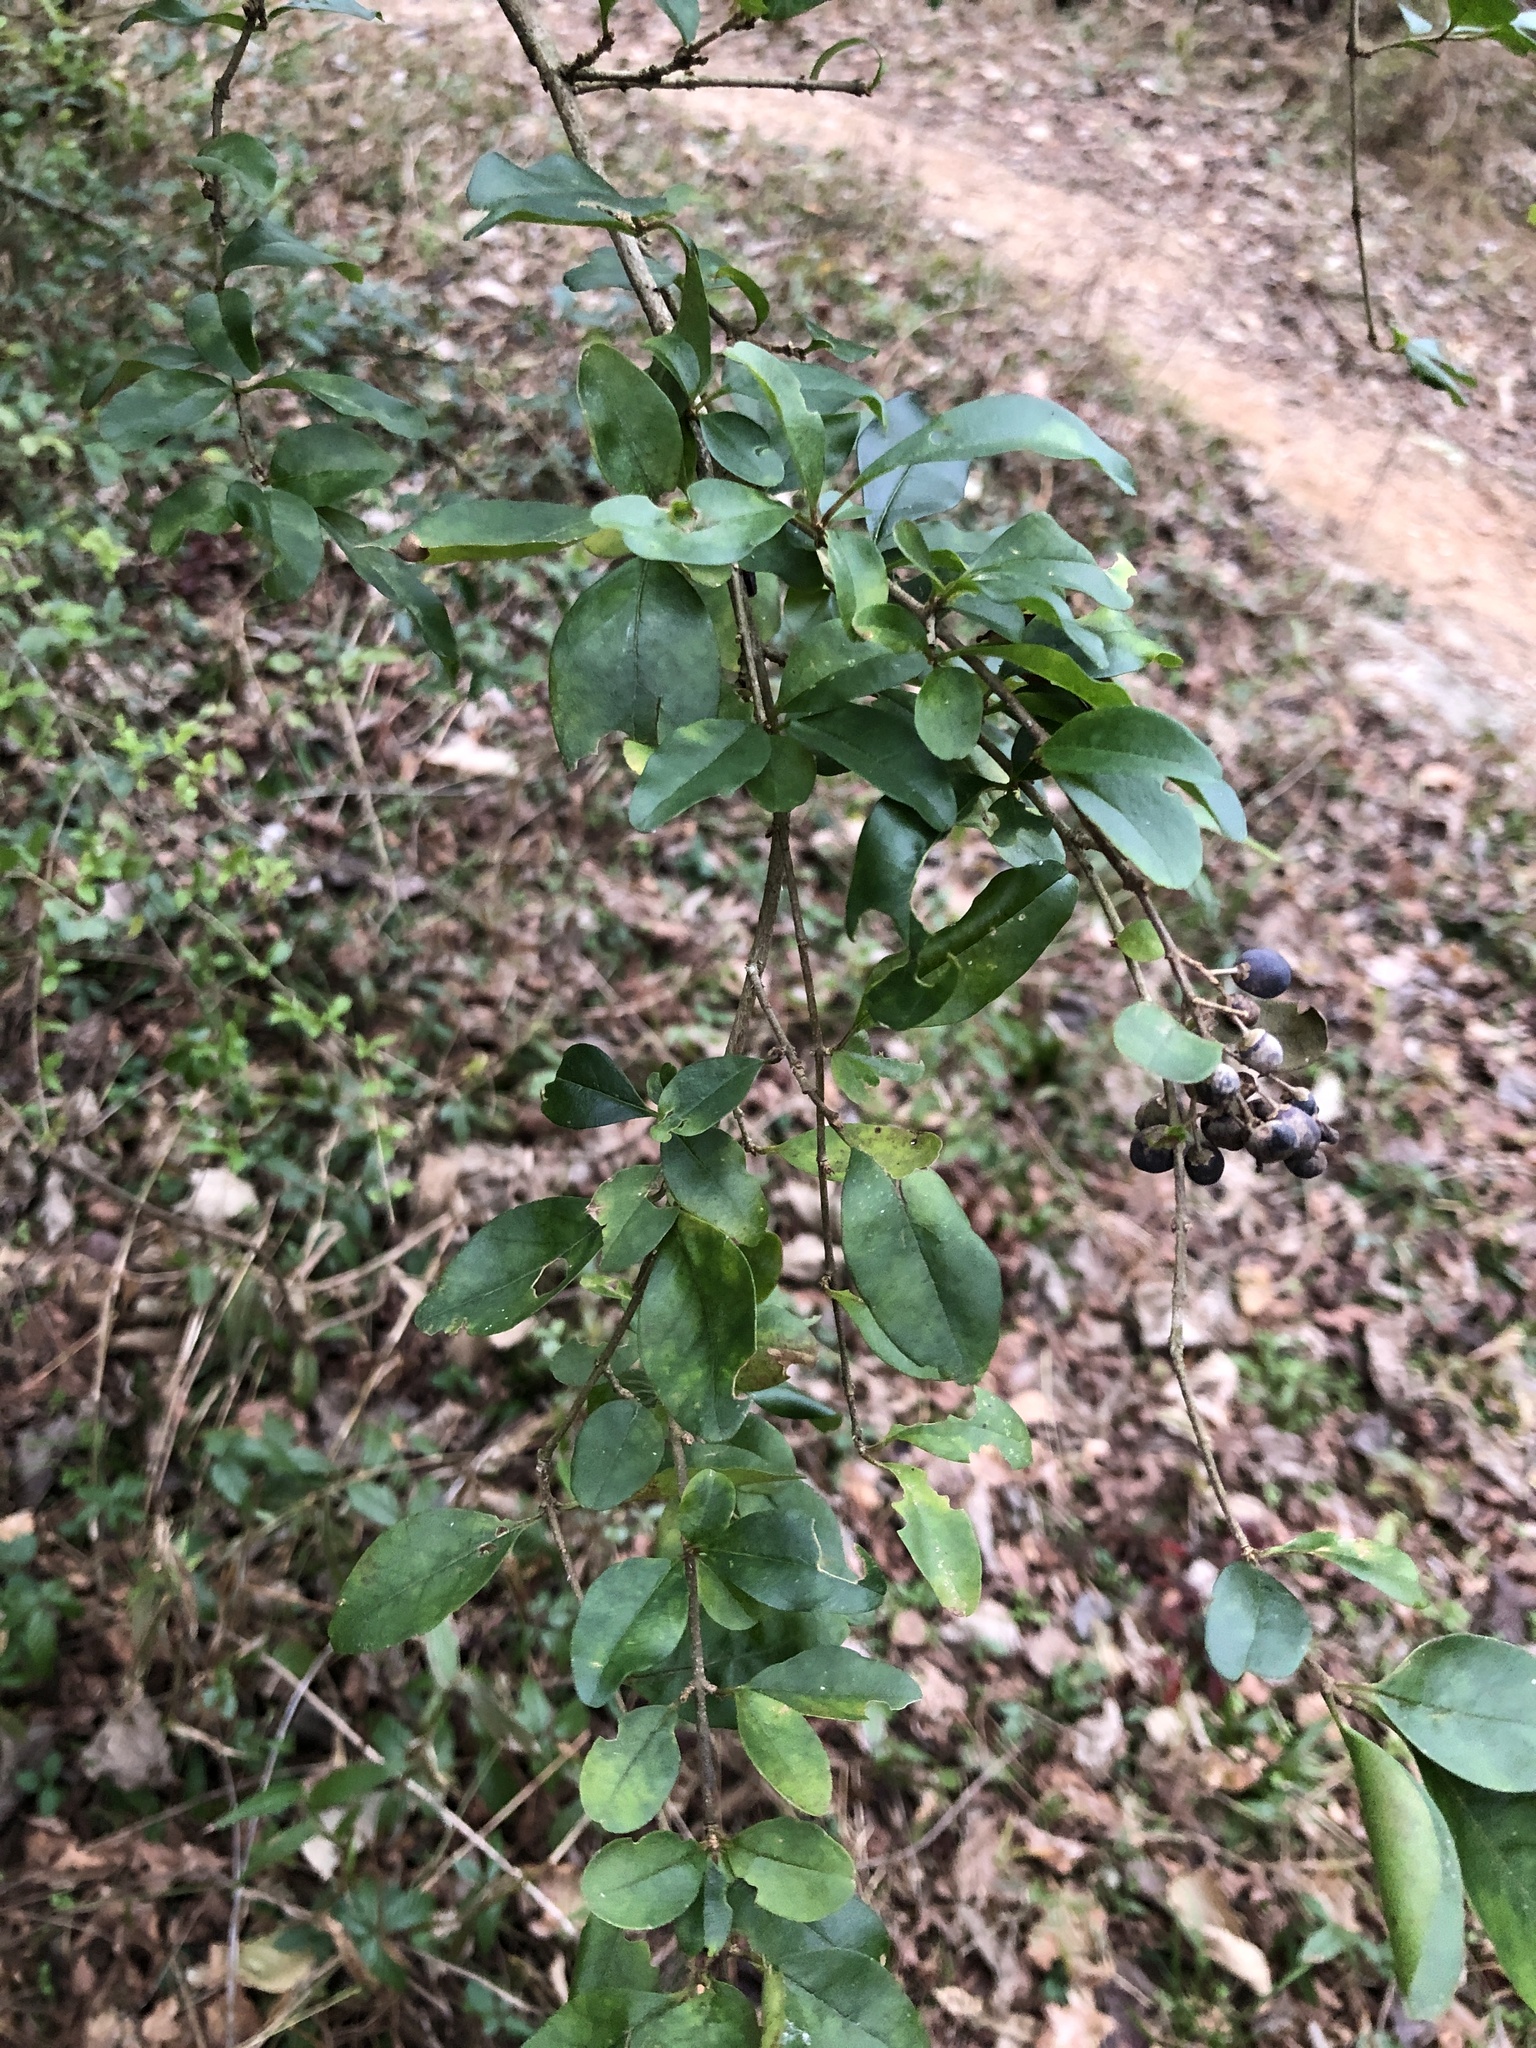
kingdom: Plantae
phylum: Tracheophyta
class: Magnoliopsida
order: Lamiales
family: Oleaceae
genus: Ligustrum
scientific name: Ligustrum sinense
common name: Chinese privet
